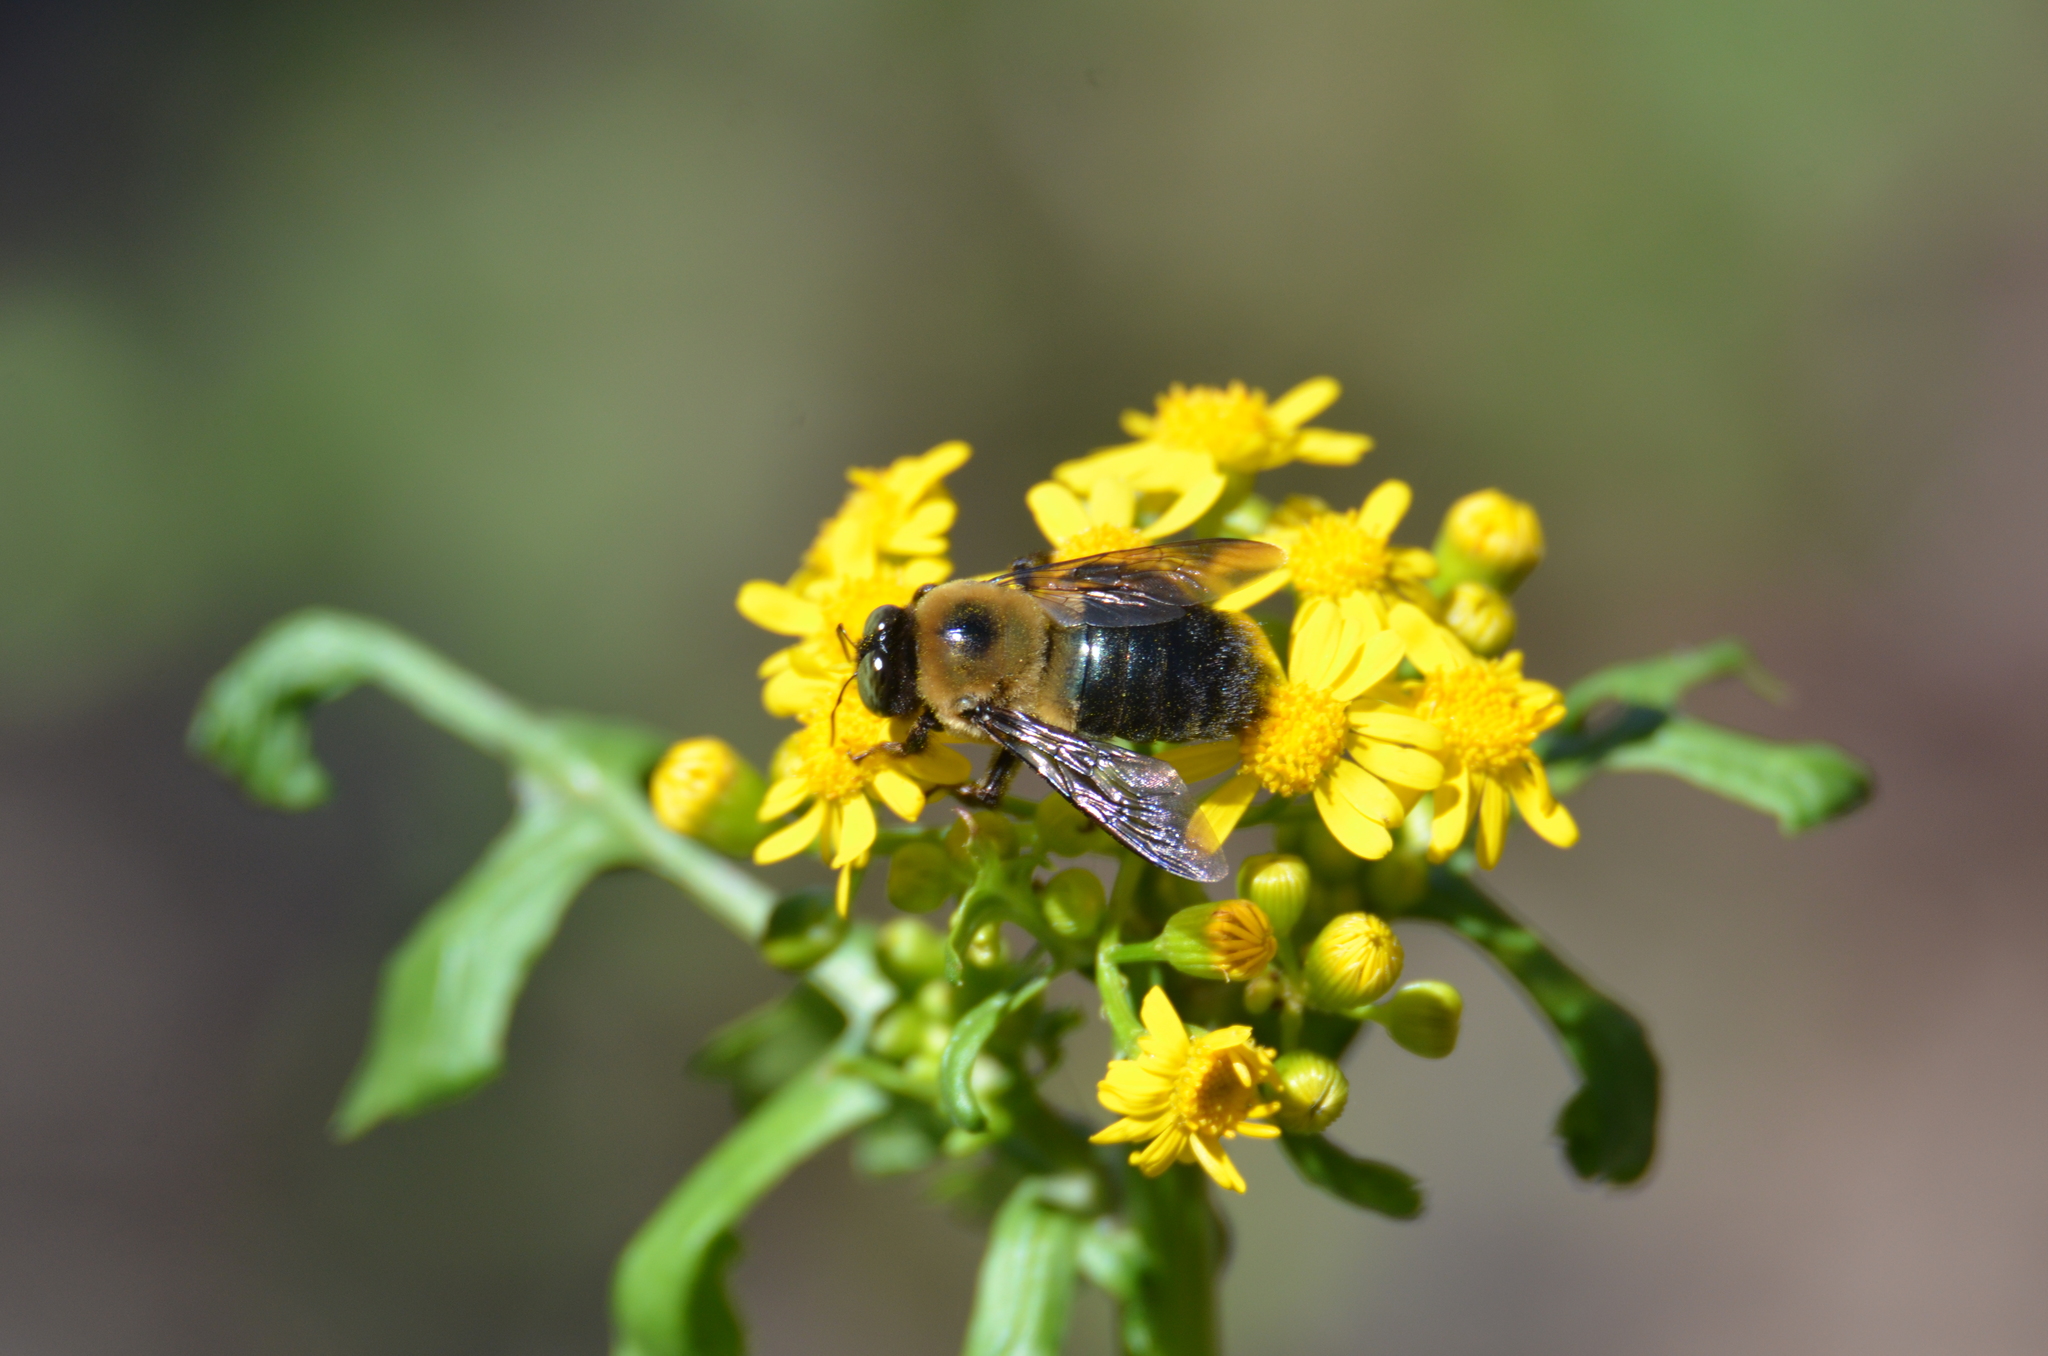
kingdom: Animalia
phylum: Arthropoda
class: Insecta
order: Hymenoptera
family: Apidae
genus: Xylocopa
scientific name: Xylocopa virginica
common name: Carpenter bee
